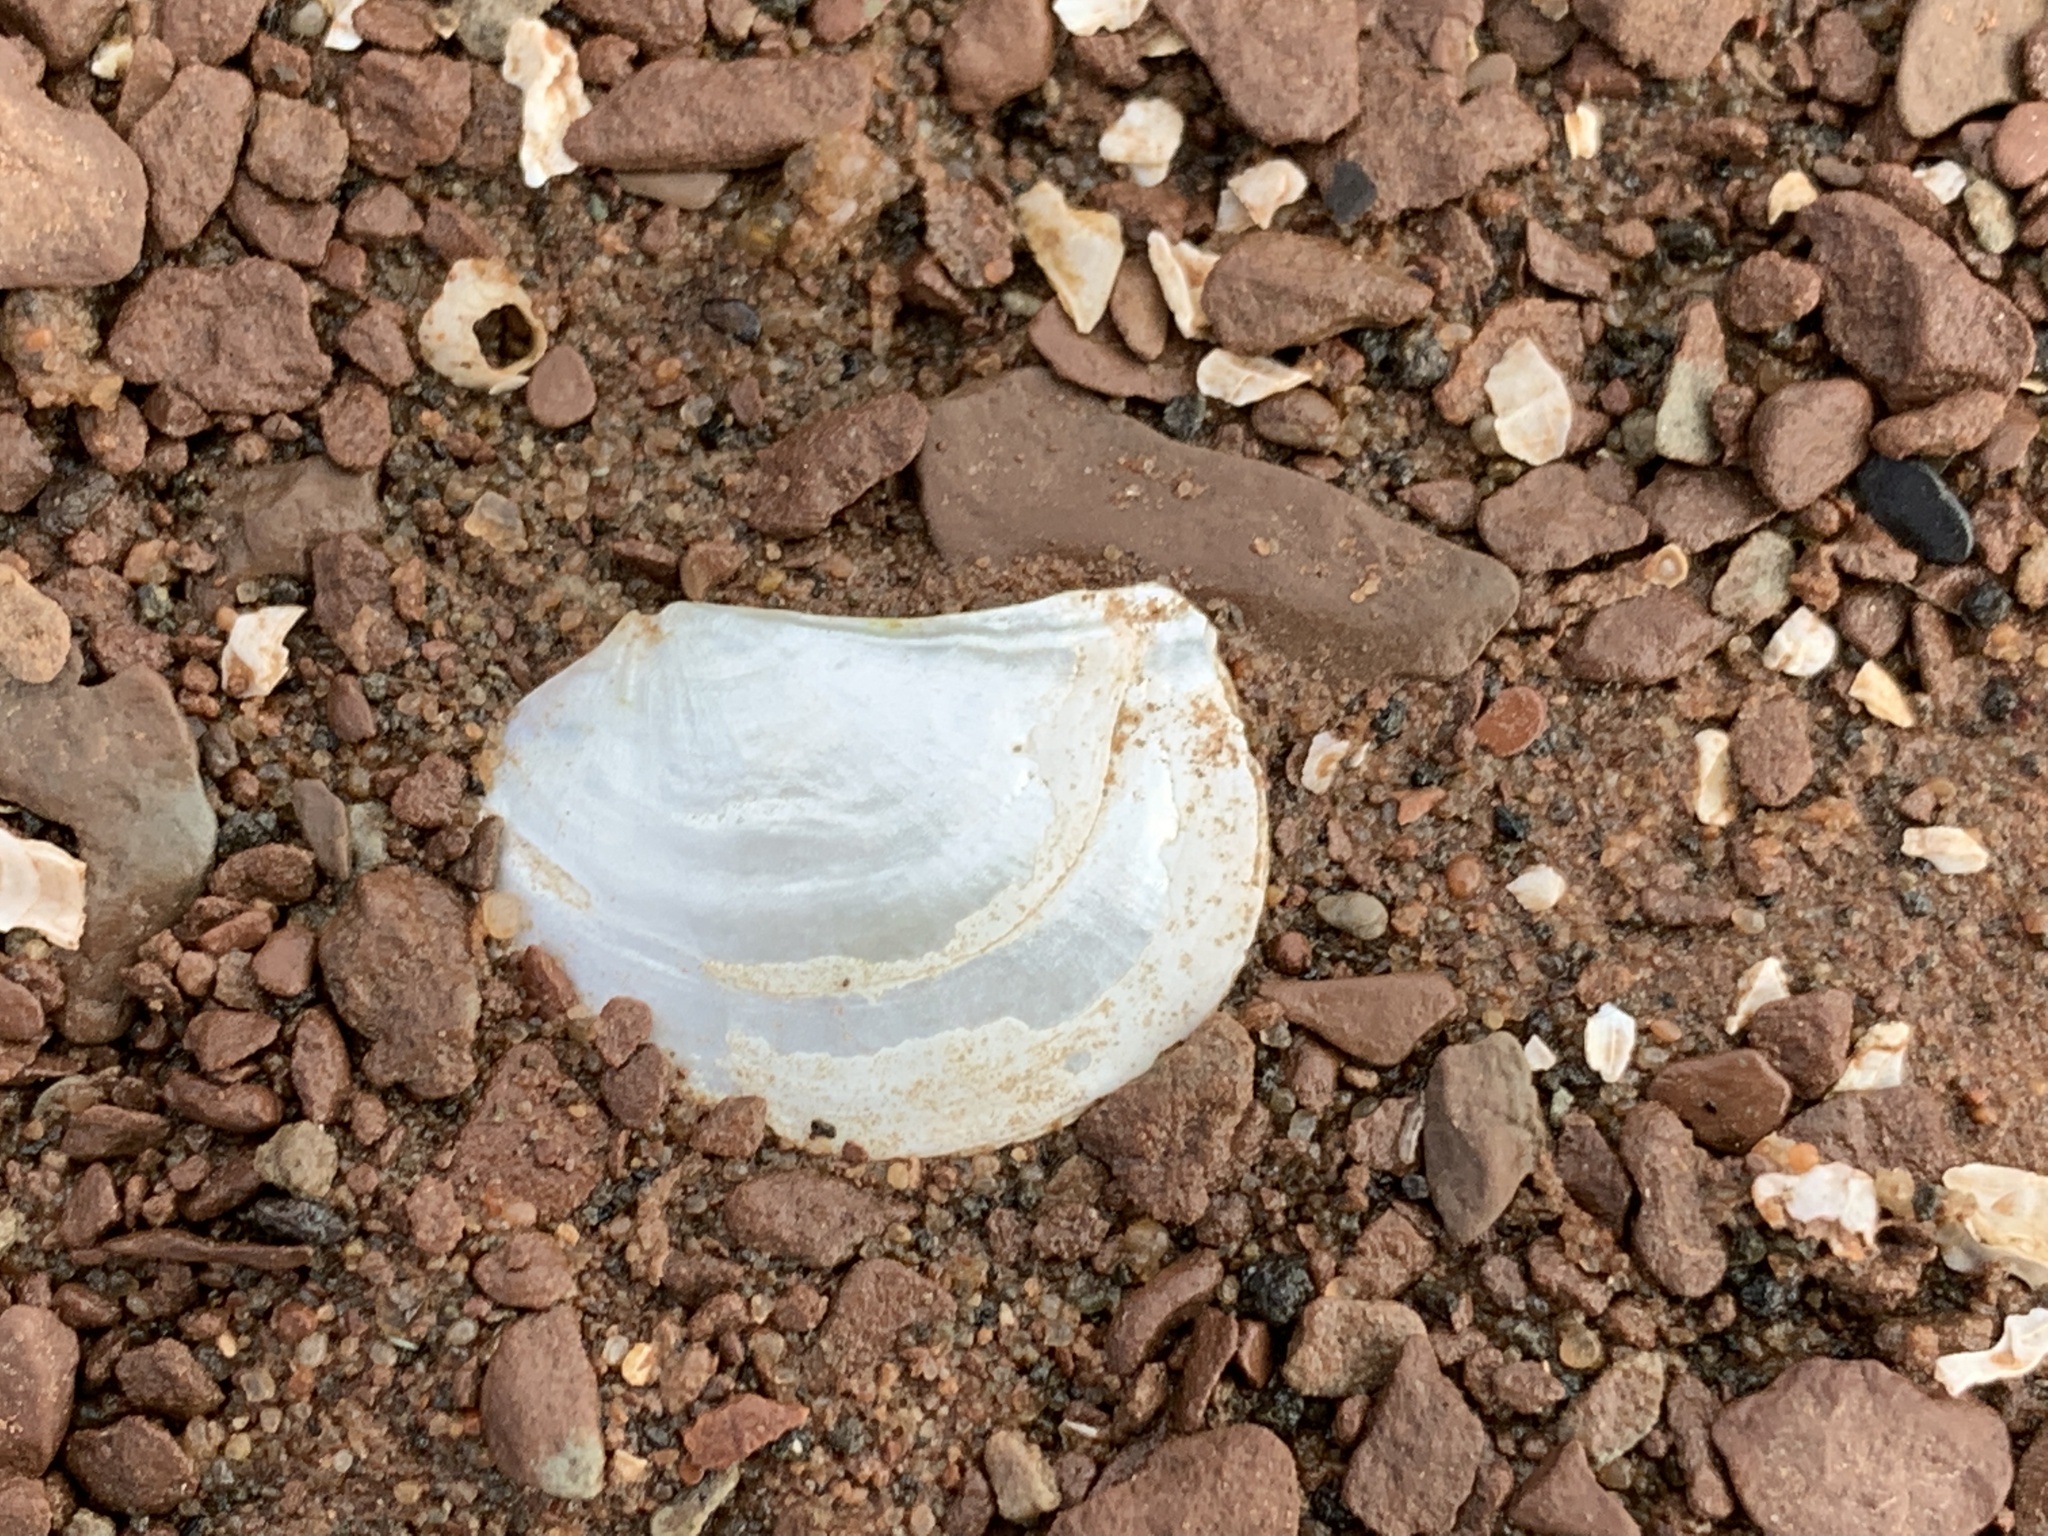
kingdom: Animalia
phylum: Mollusca
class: Bivalvia
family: Pandoridae
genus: Pandora
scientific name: Pandora gouldiana
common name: Rounded pandora
